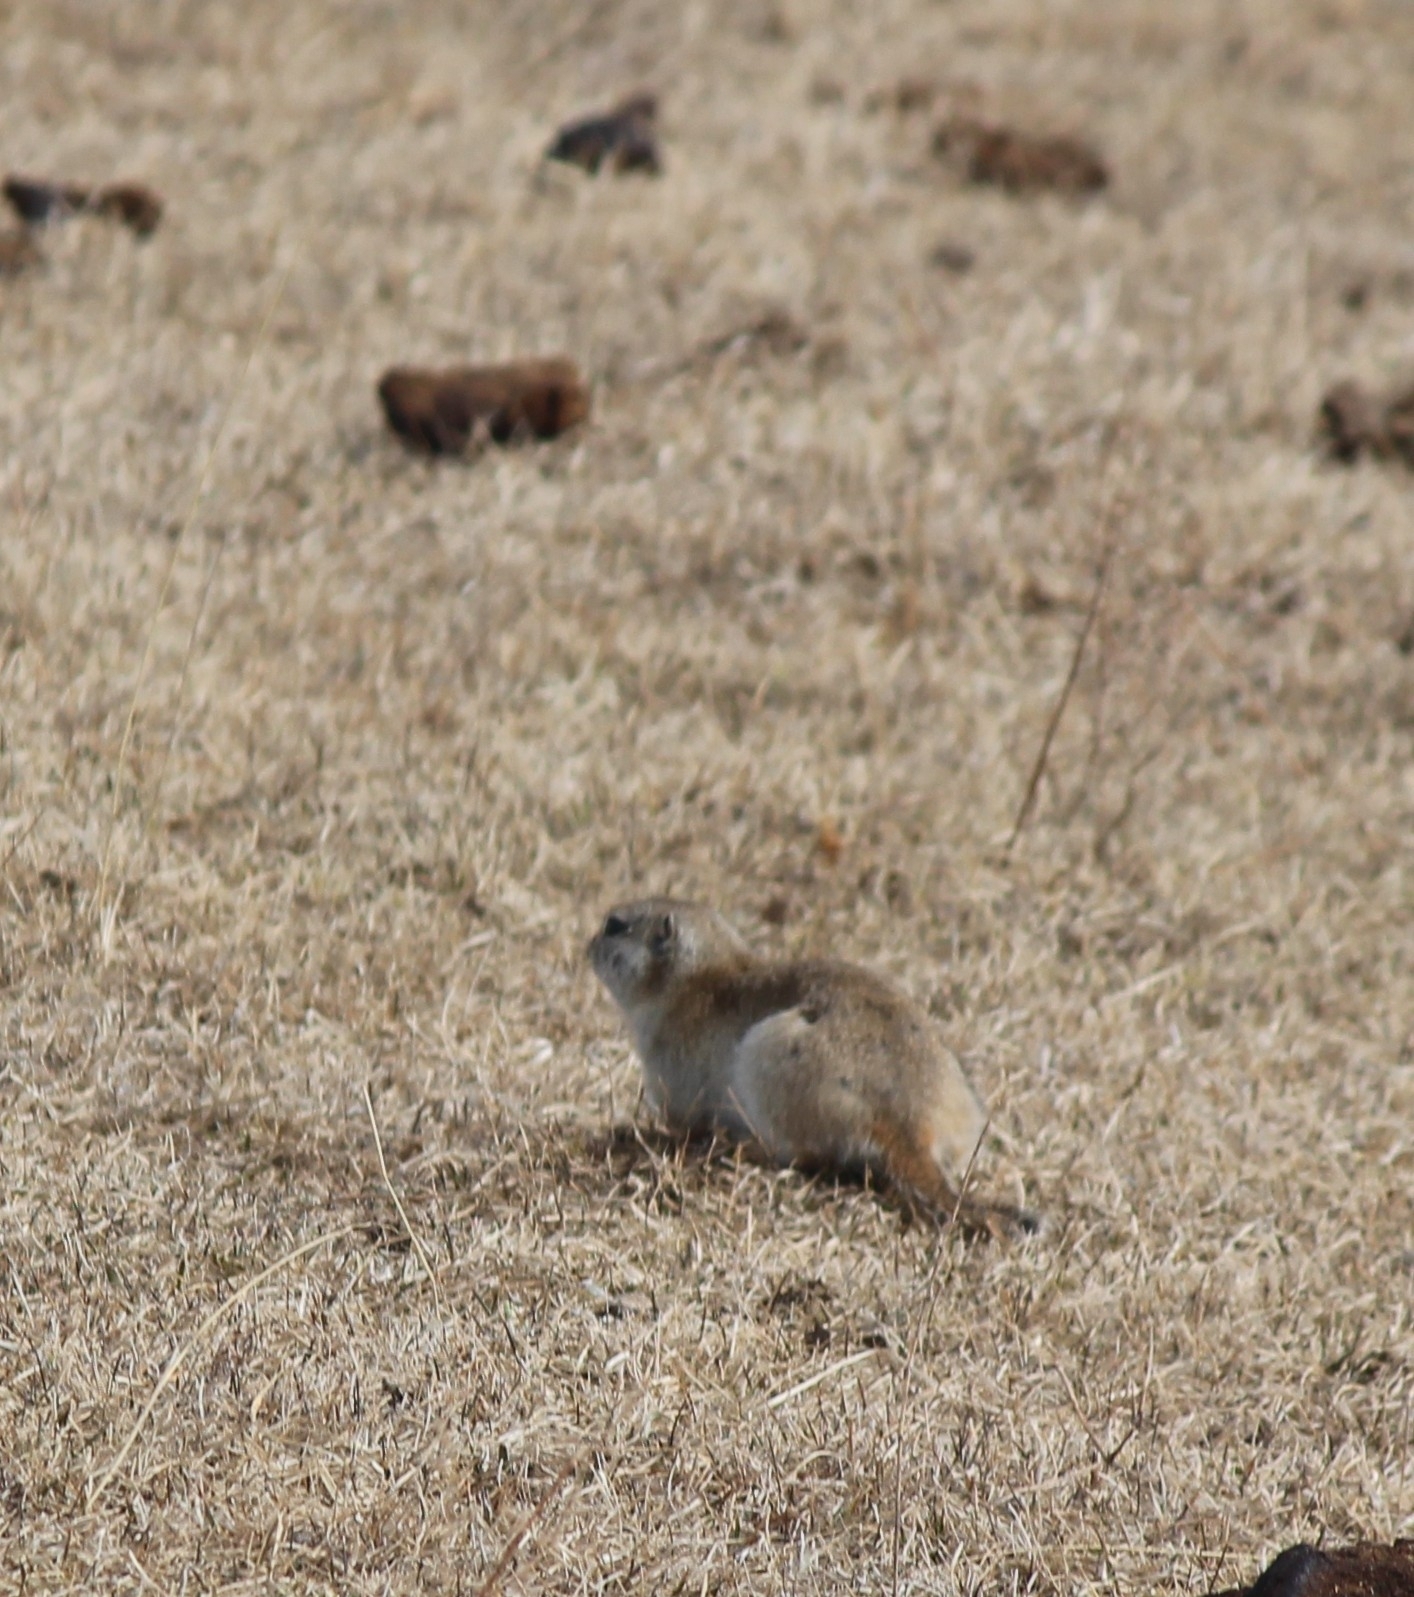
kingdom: Animalia
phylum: Chordata
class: Mammalia
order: Rodentia
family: Sciuridae
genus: Urocitellus
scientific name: Urocitellus undulatus
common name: Long-tailed ground squirrel
